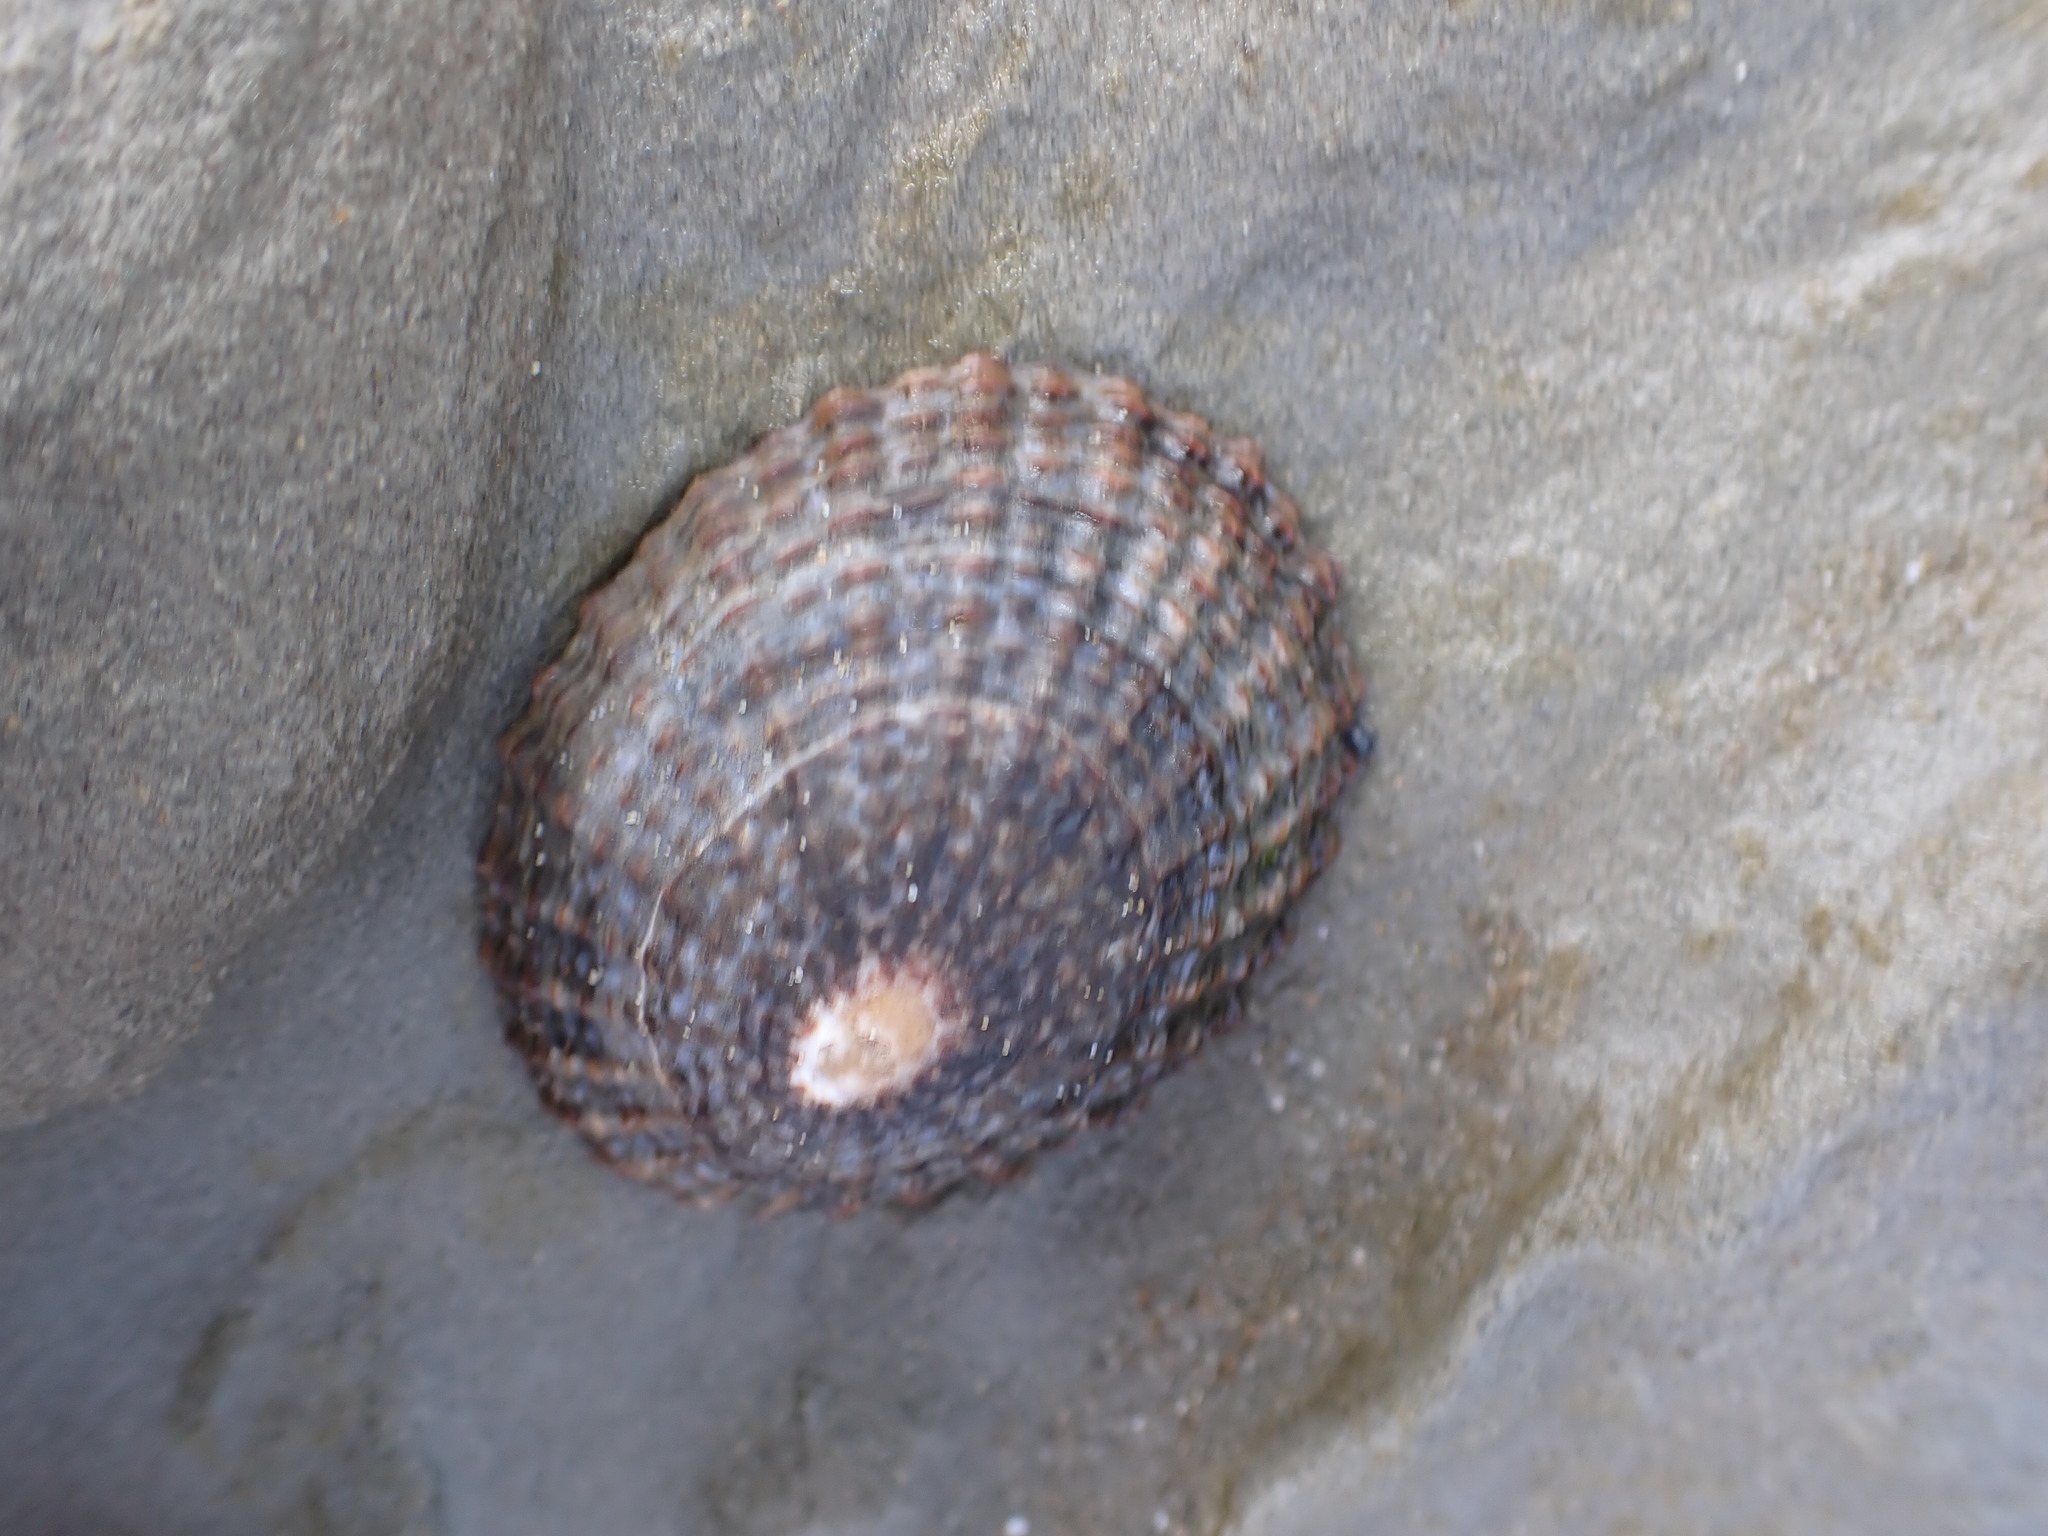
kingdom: Animalia
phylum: Mollusca
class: Gastropoda
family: Nacellidae
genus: Cellana
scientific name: Cellana denticulata
